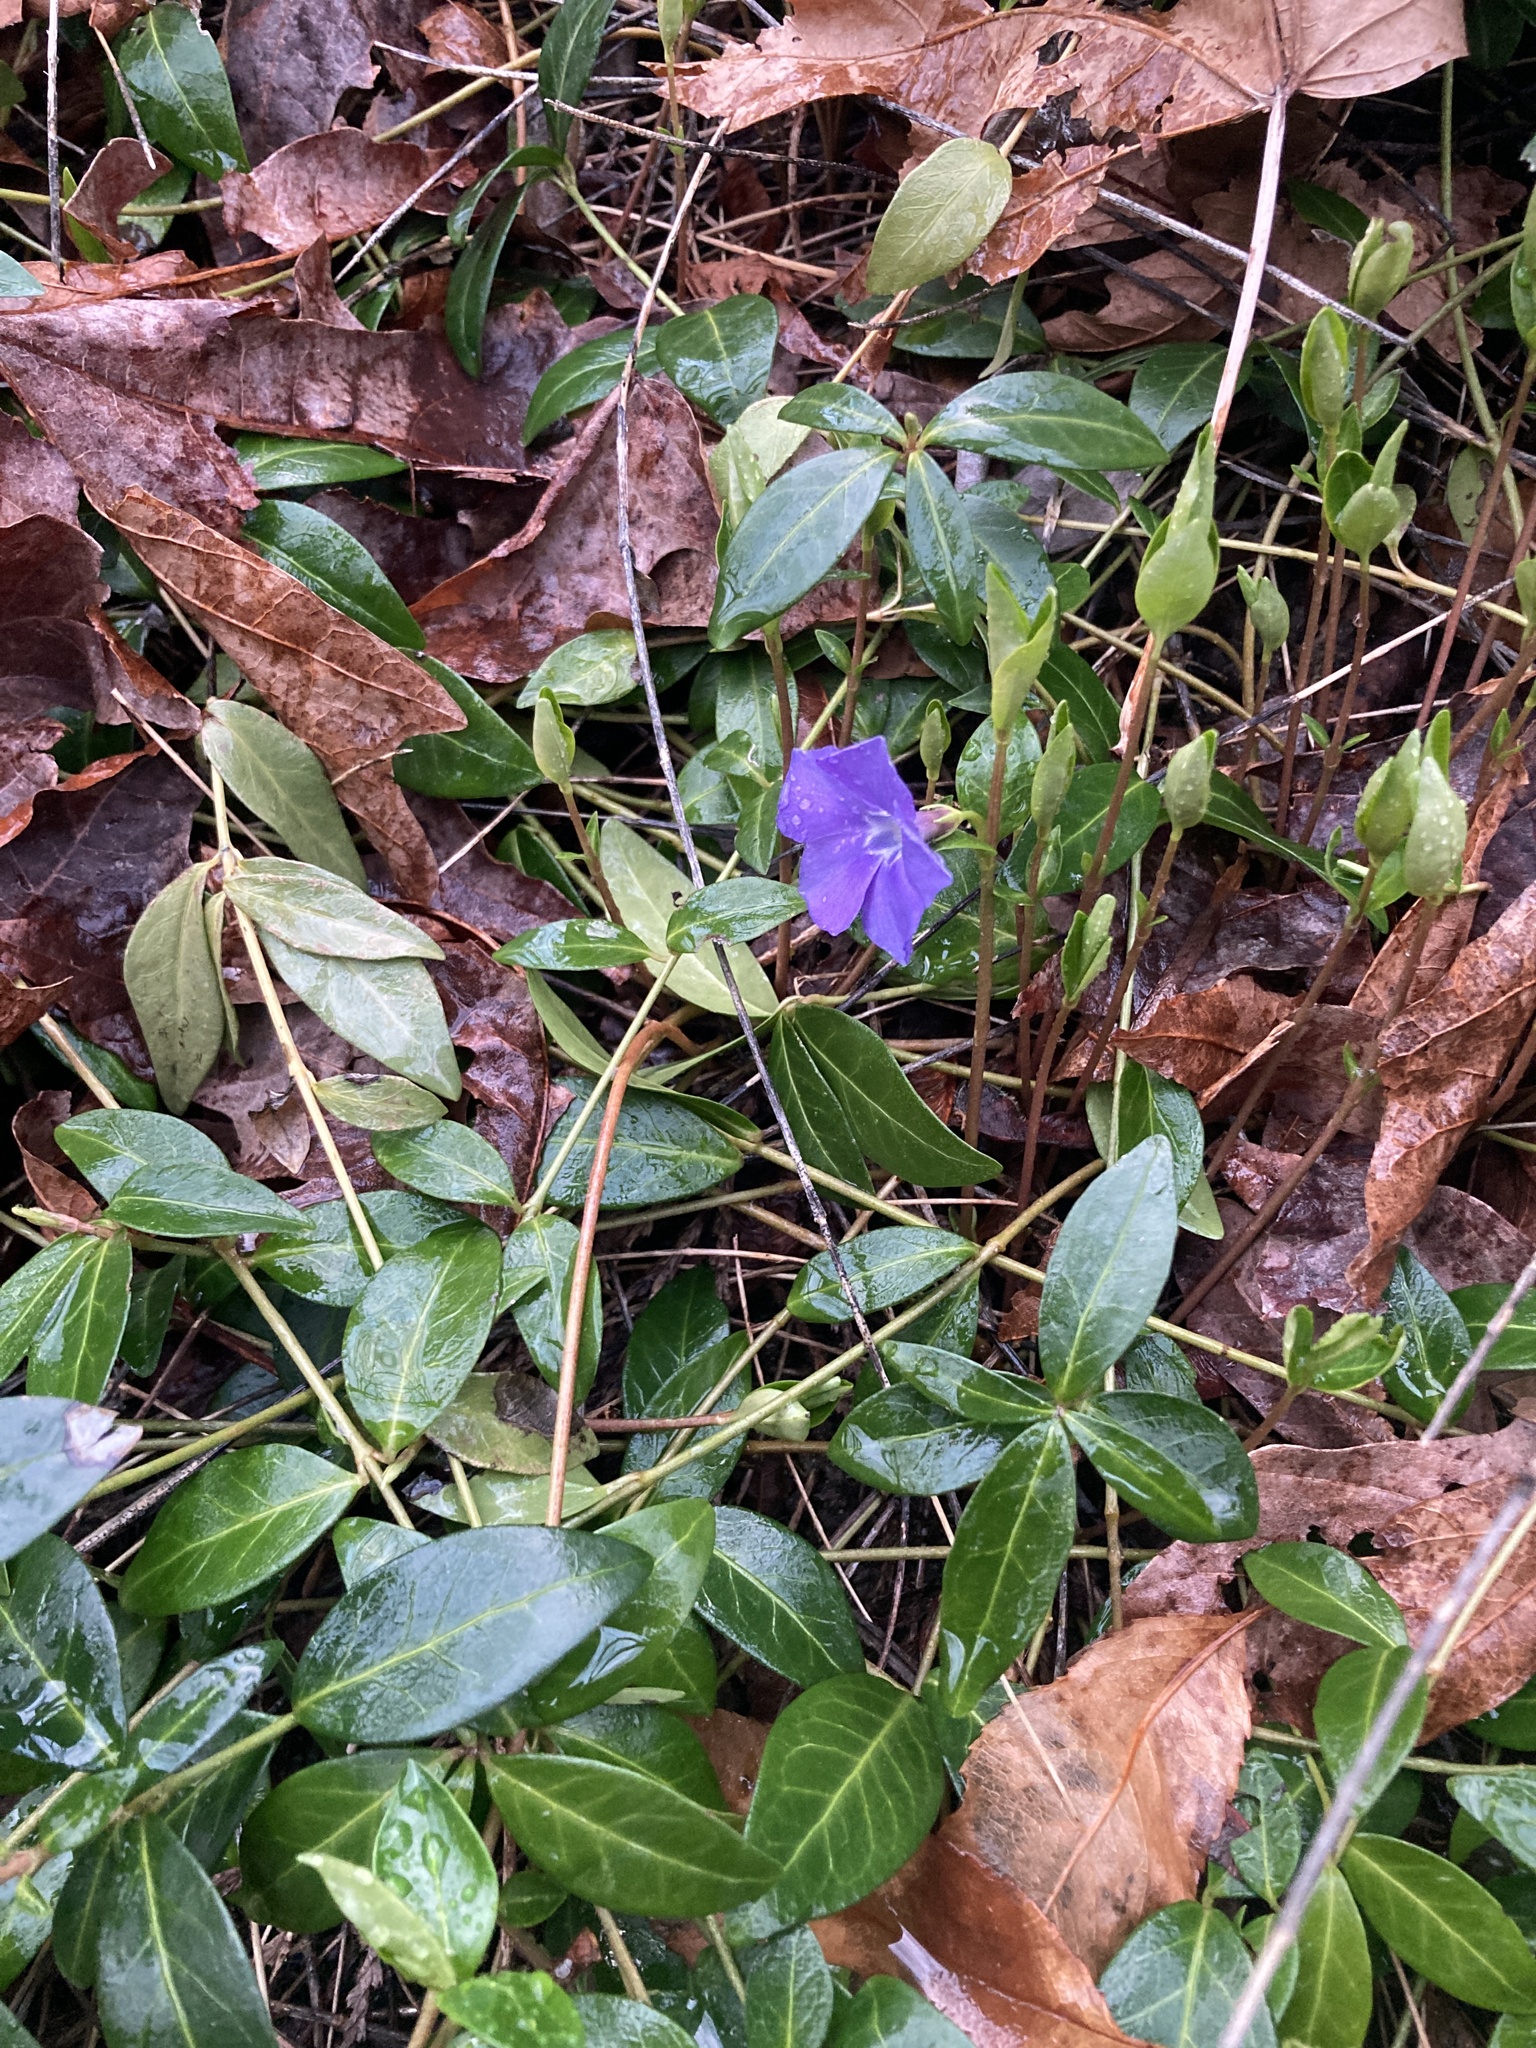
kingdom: Plantae
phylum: Tracheophyta
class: Magnoliopsida
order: Gentianales
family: Apocynaceae
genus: Vinca
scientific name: Vinca minor
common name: Lesser periwinkle
